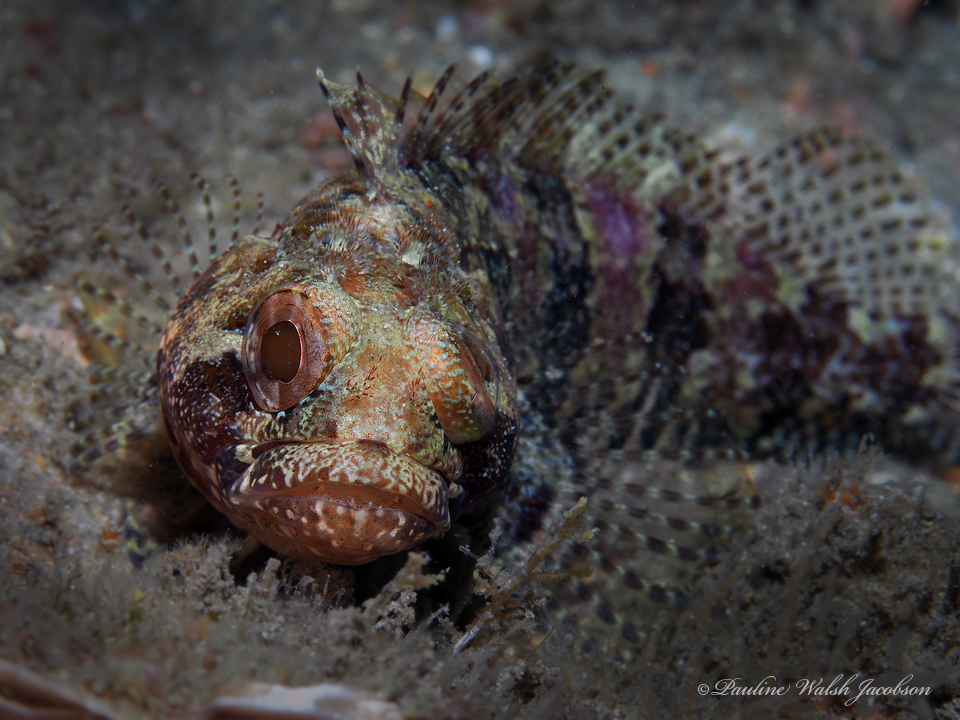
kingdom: Animalia
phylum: Chordata
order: Perciformes
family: Labrisomidae
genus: Gobioclinus
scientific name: Gobioclinus kalisherae
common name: Downy blenny
